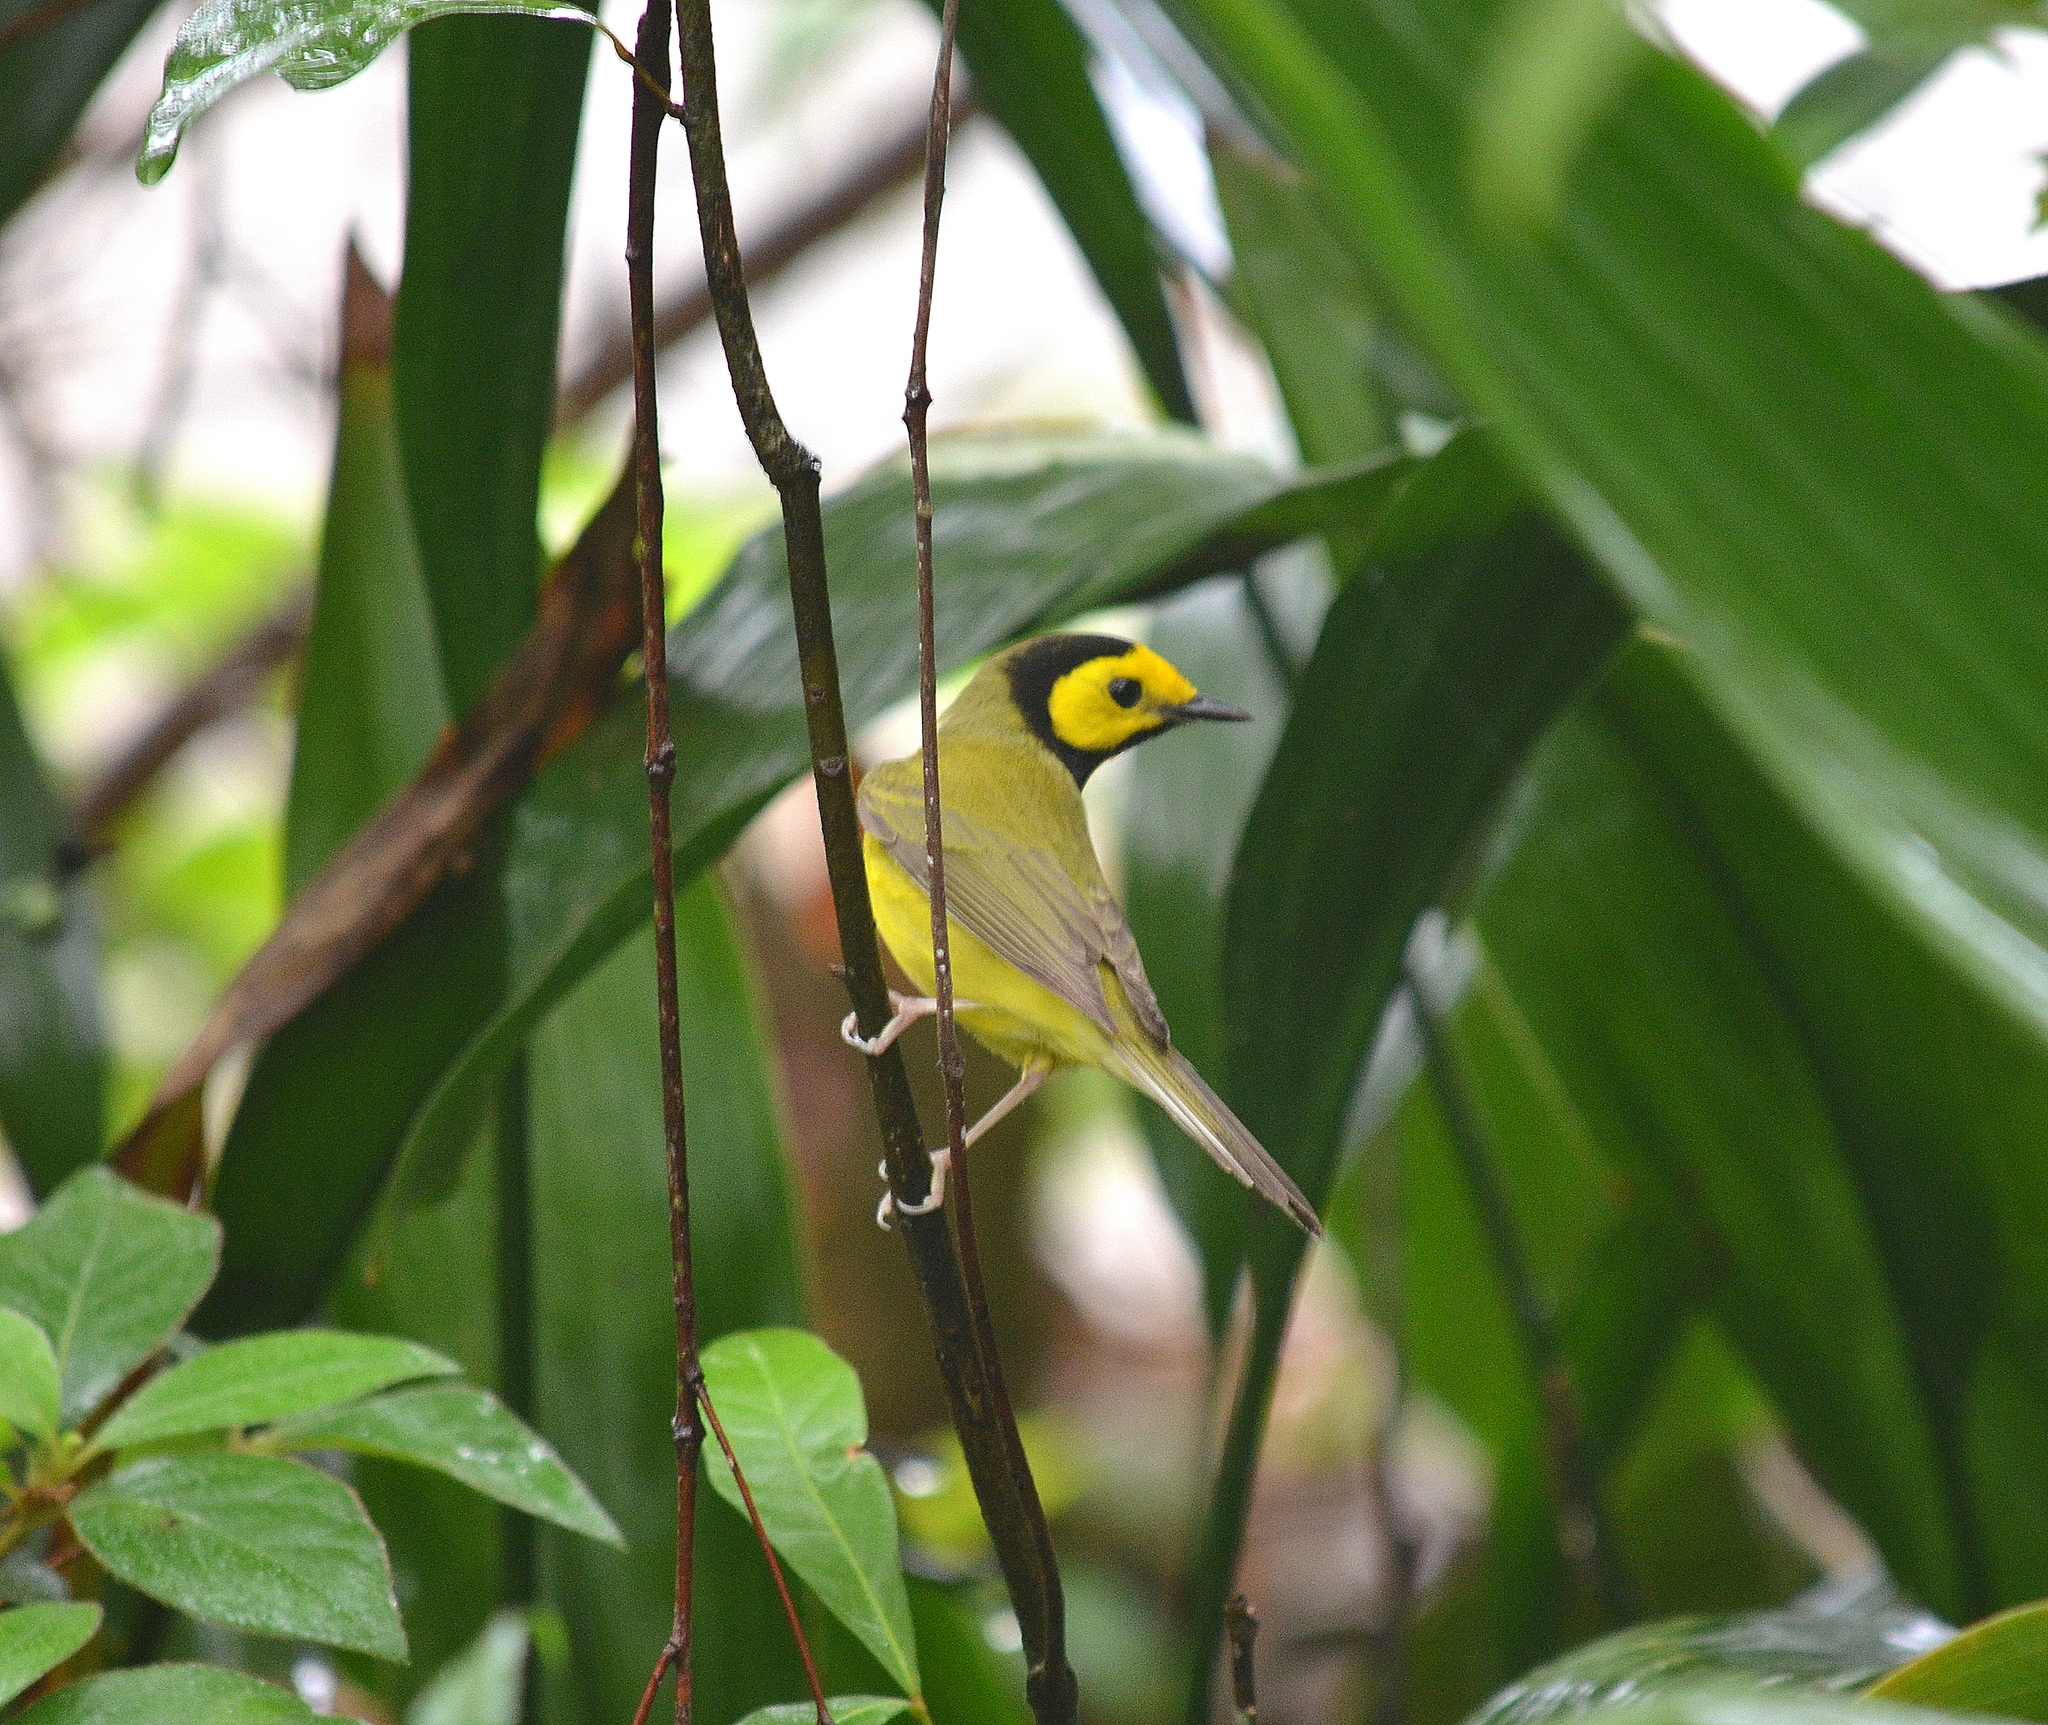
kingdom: Animalia
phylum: Chordata
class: Aves
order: Passeriformes
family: Parulidae
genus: Setophaga
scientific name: Setophaga citrina
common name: Hooded warbler
